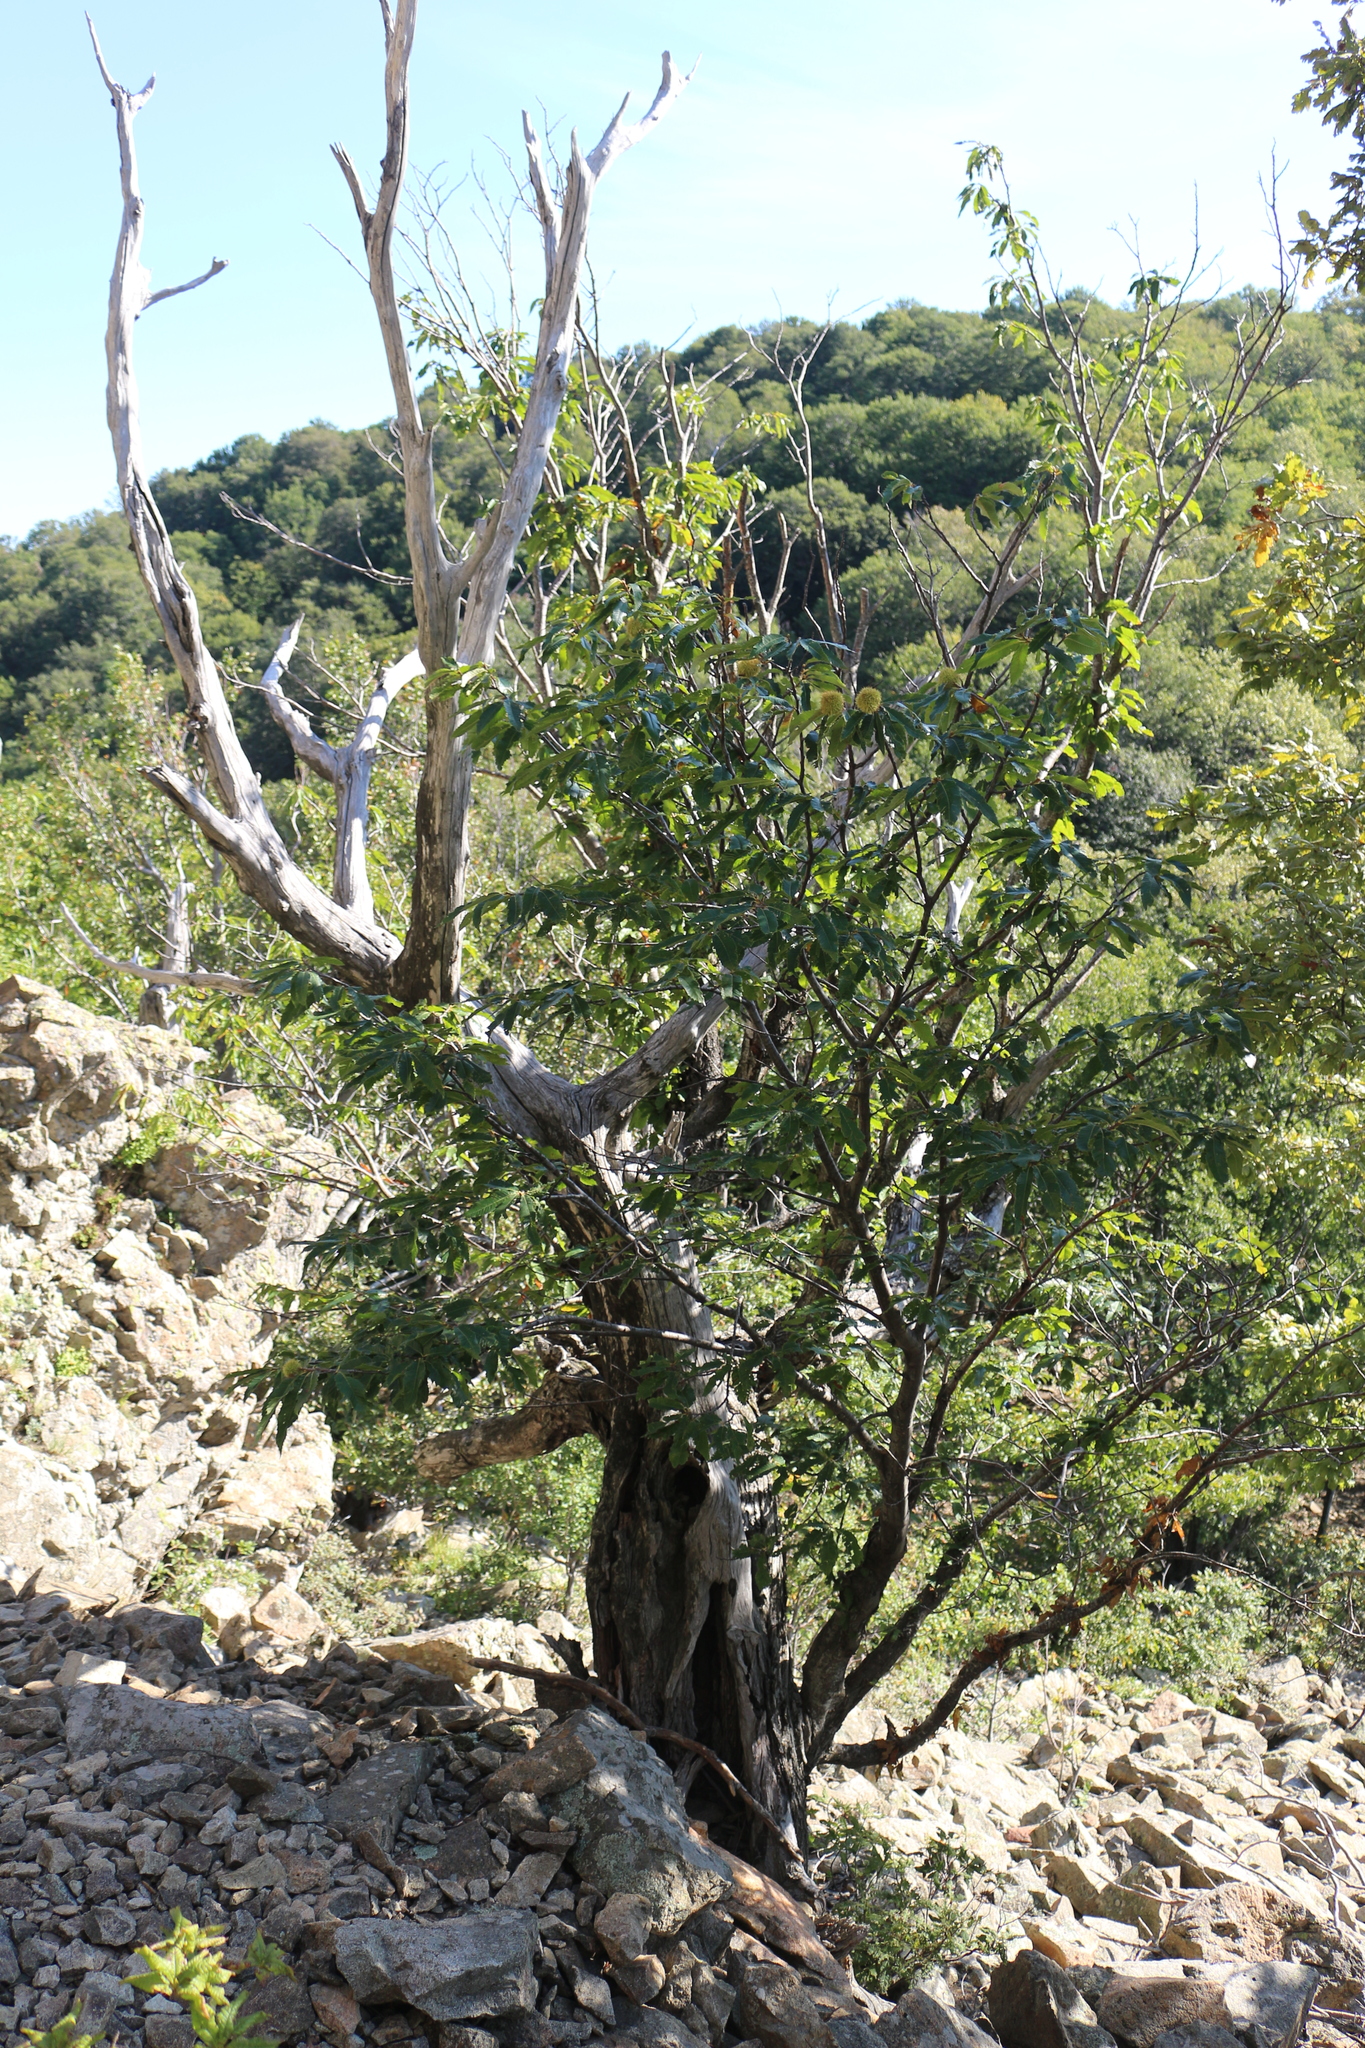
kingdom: Plantae
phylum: Tracheophyta
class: Magnoliopsida
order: Fagales
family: Fagaceae
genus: Castanea
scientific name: Castanea sativa
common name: Sweet chestnut
